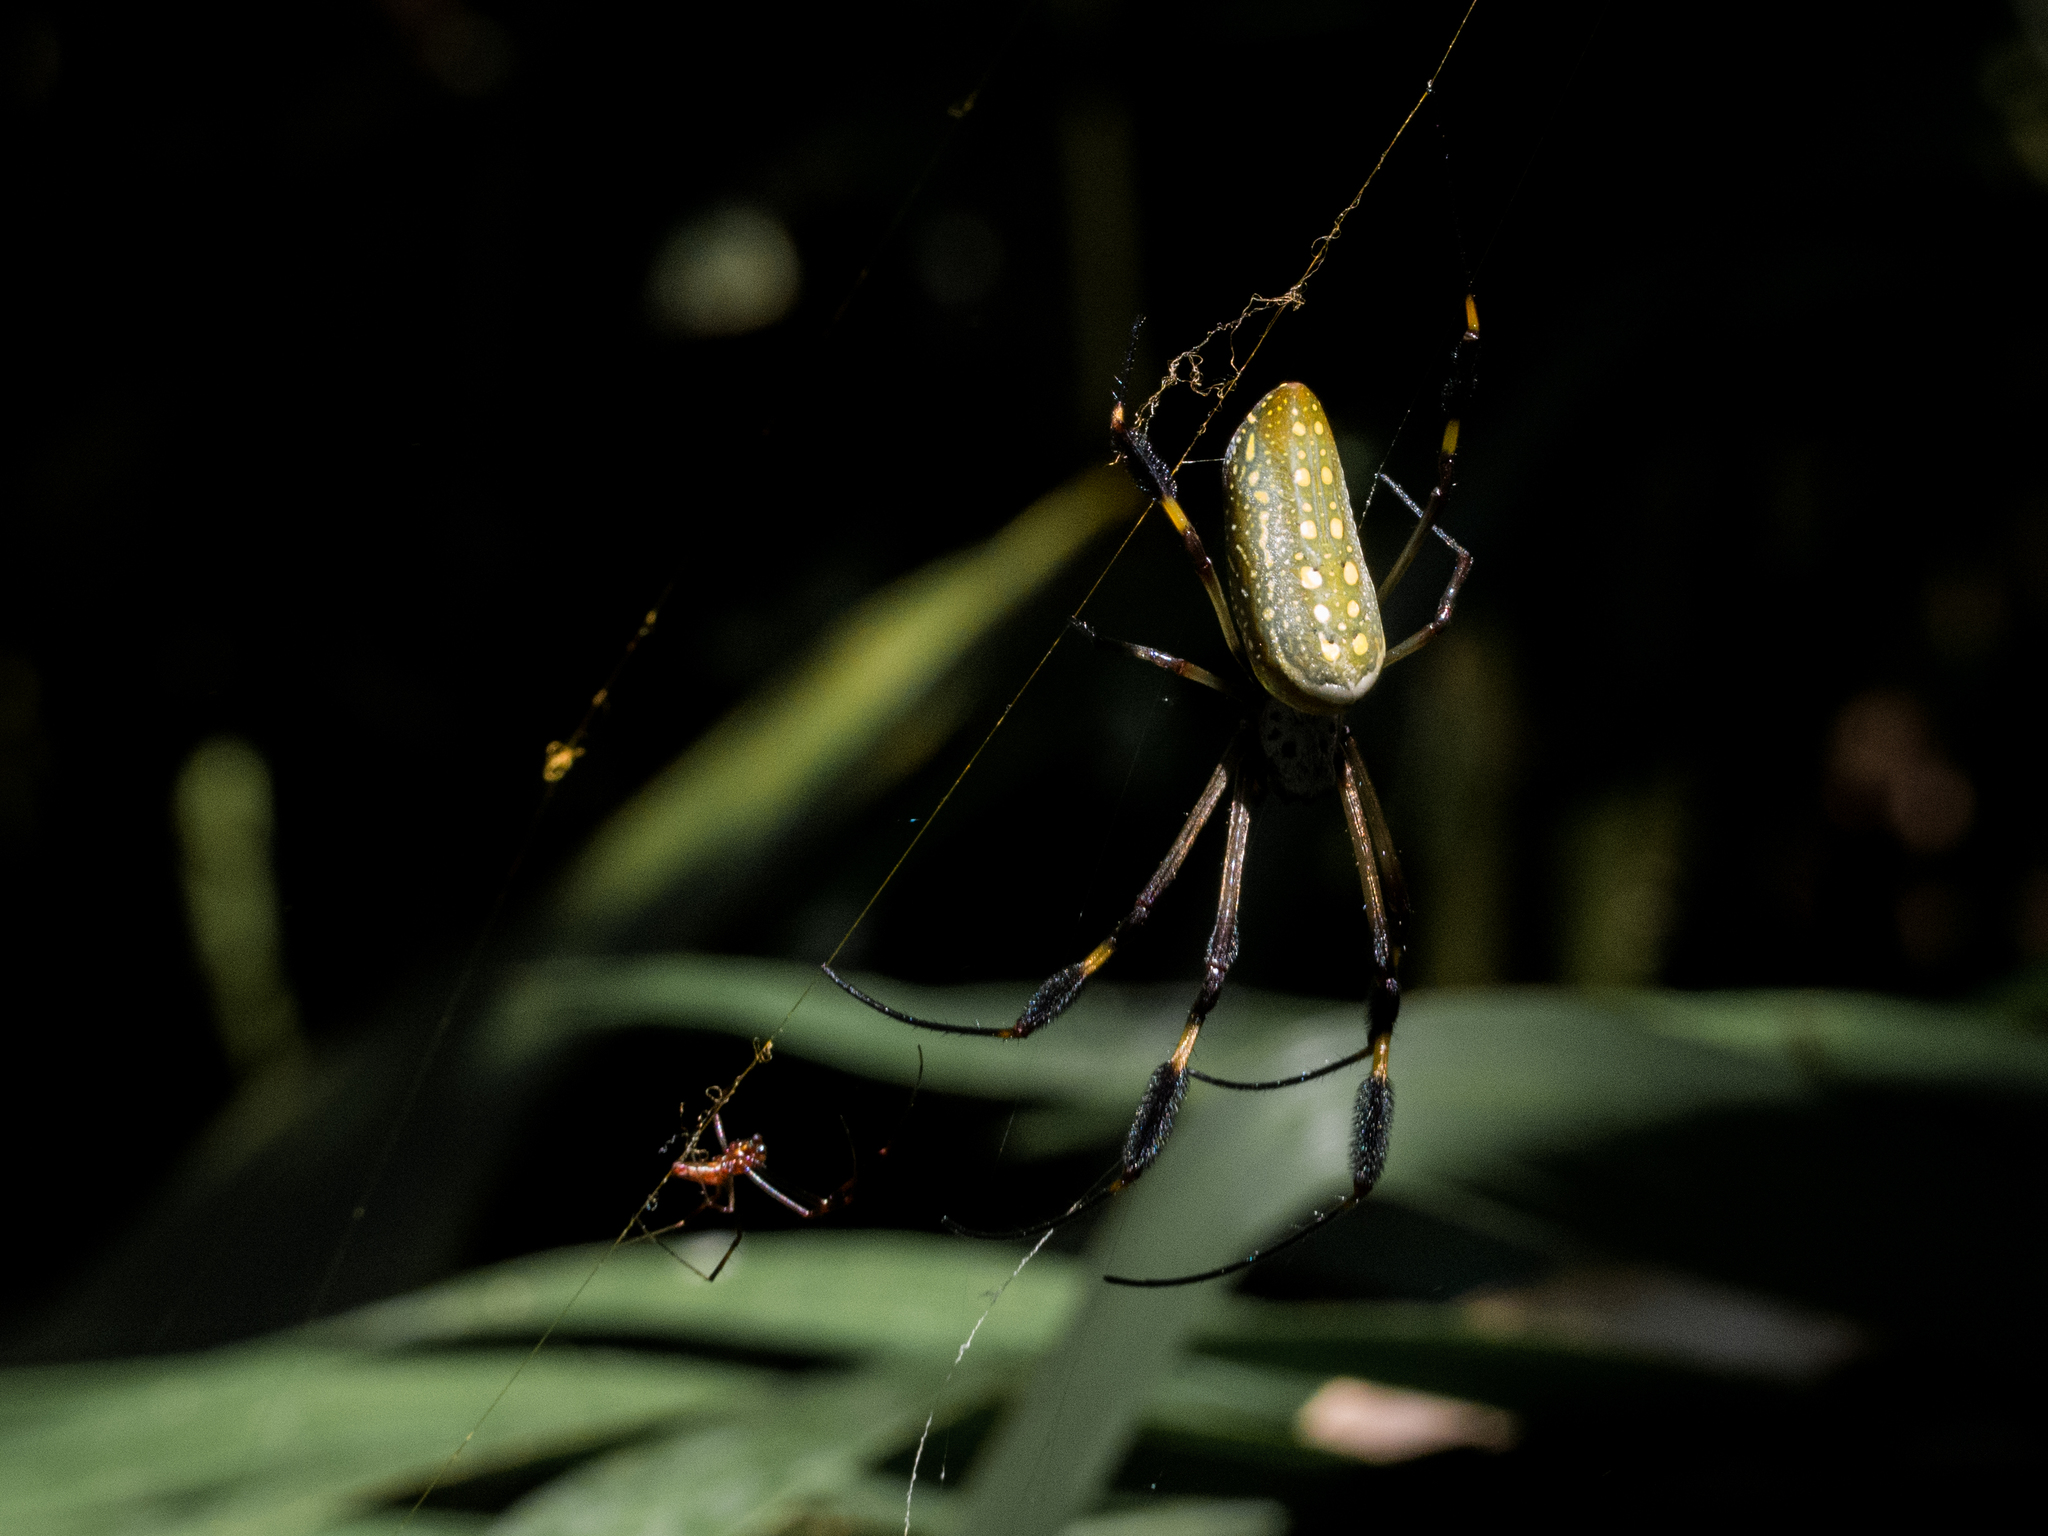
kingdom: Animalia
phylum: Arthropoda
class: Arachnida
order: Araneae
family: Araneidae
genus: Trichonephila
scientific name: Trichonephila clavipes
